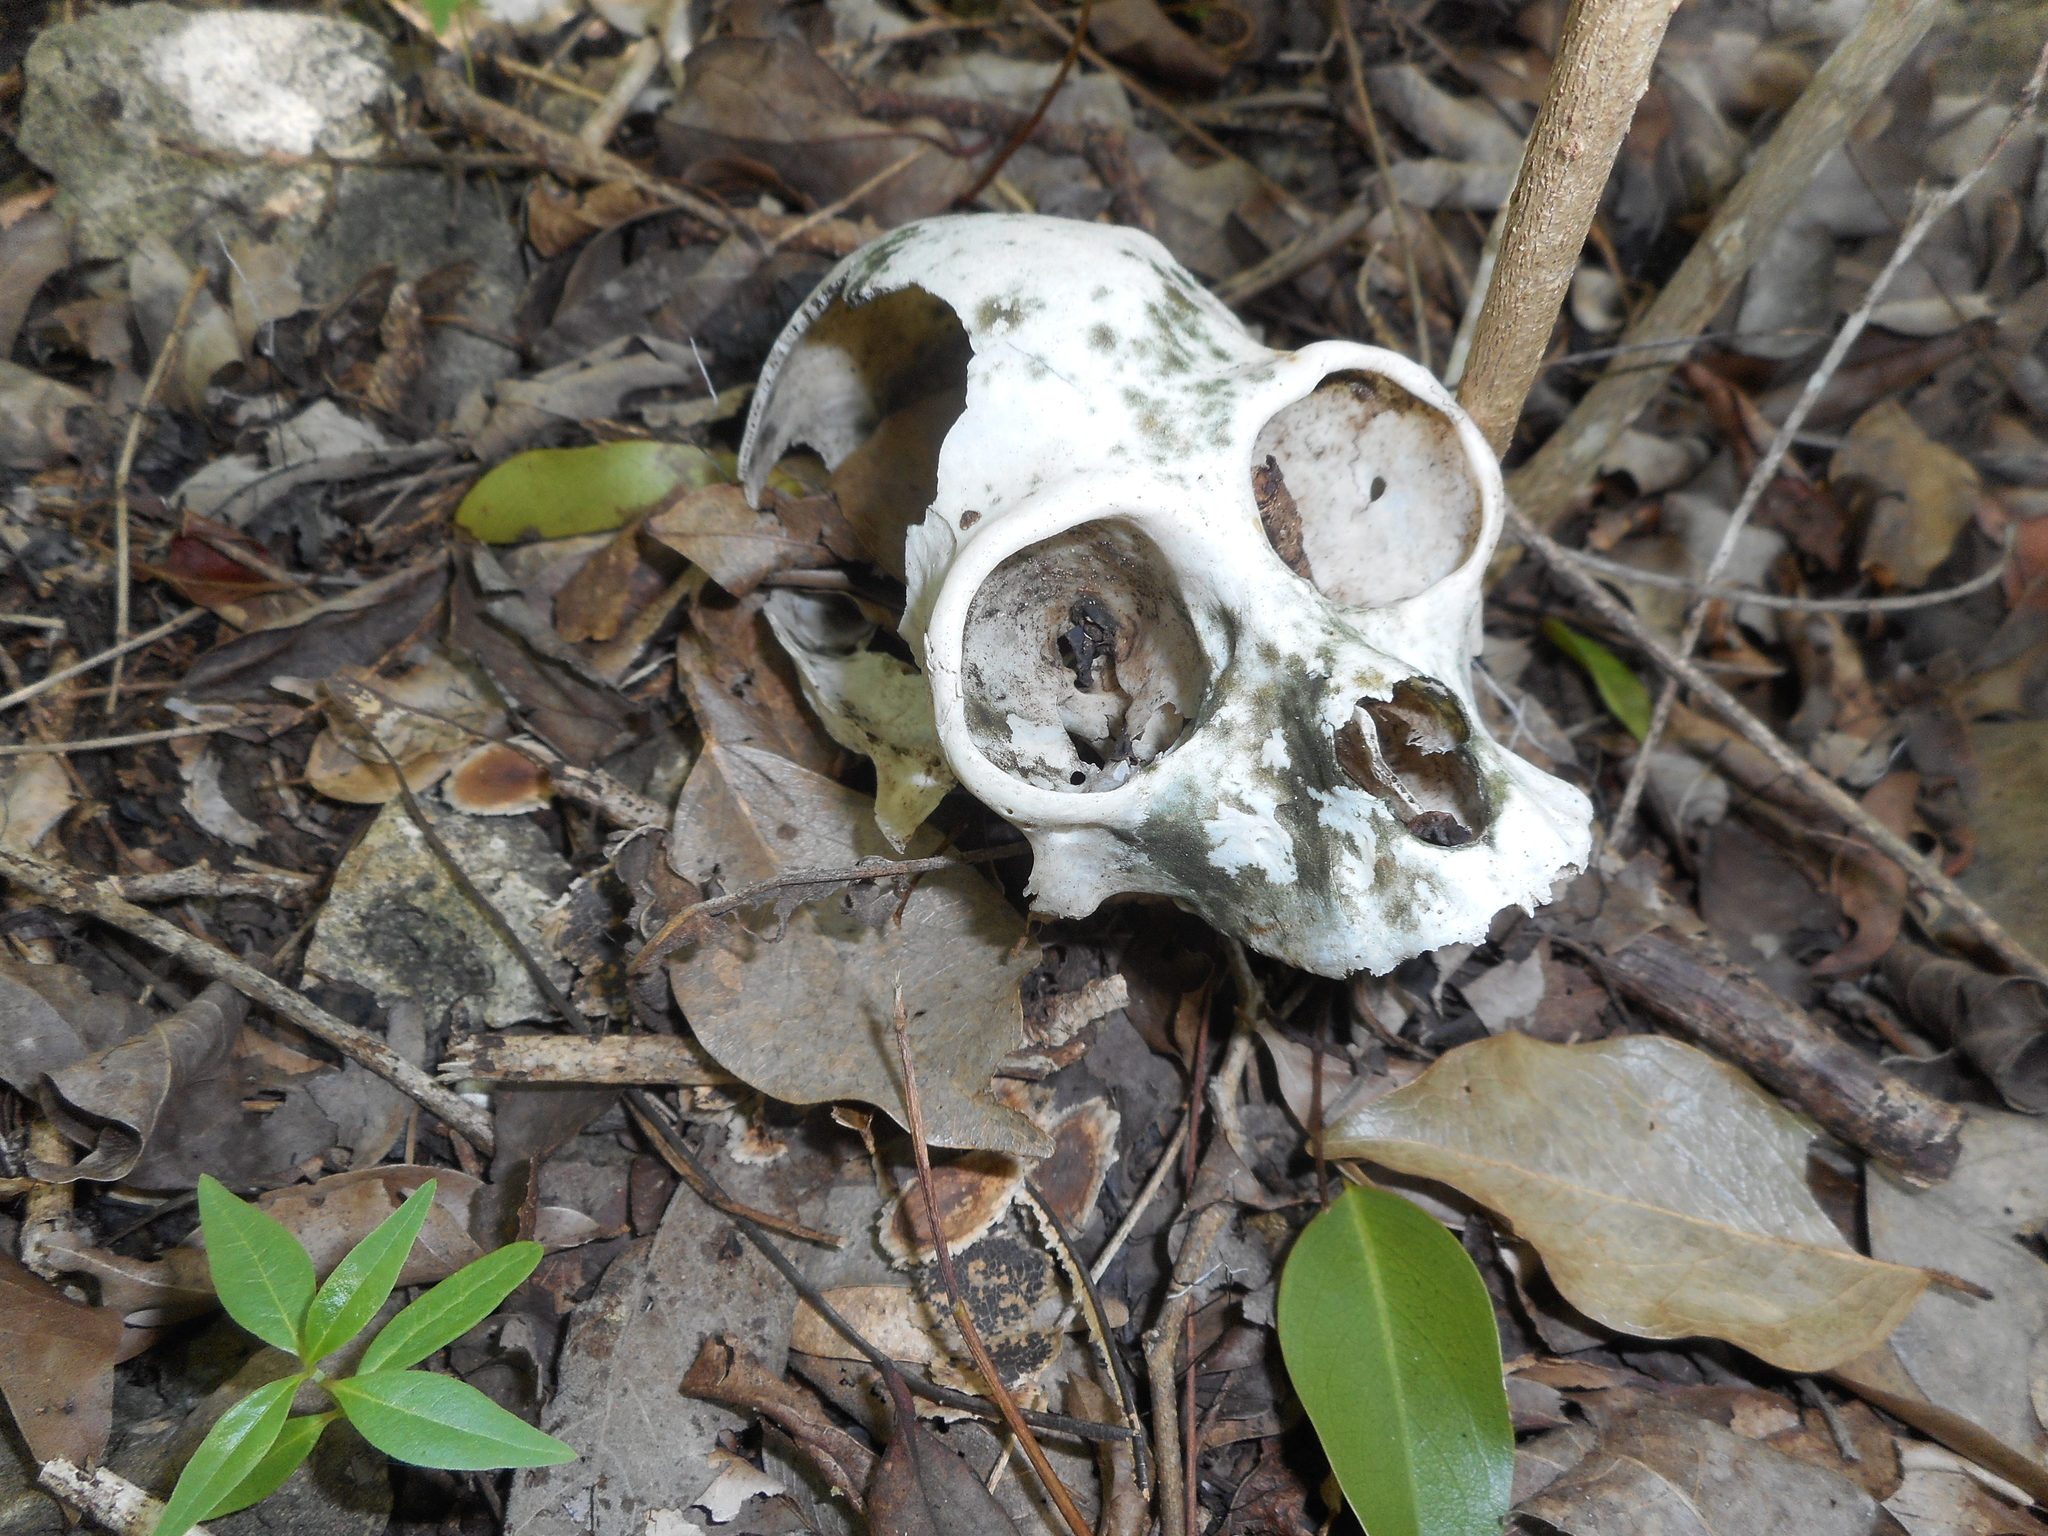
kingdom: Animalia
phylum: Chordata
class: Mammalia
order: Primates
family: Atelidae
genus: Alouatta
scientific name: Alouatta pigra
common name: Guatemalan black howler
